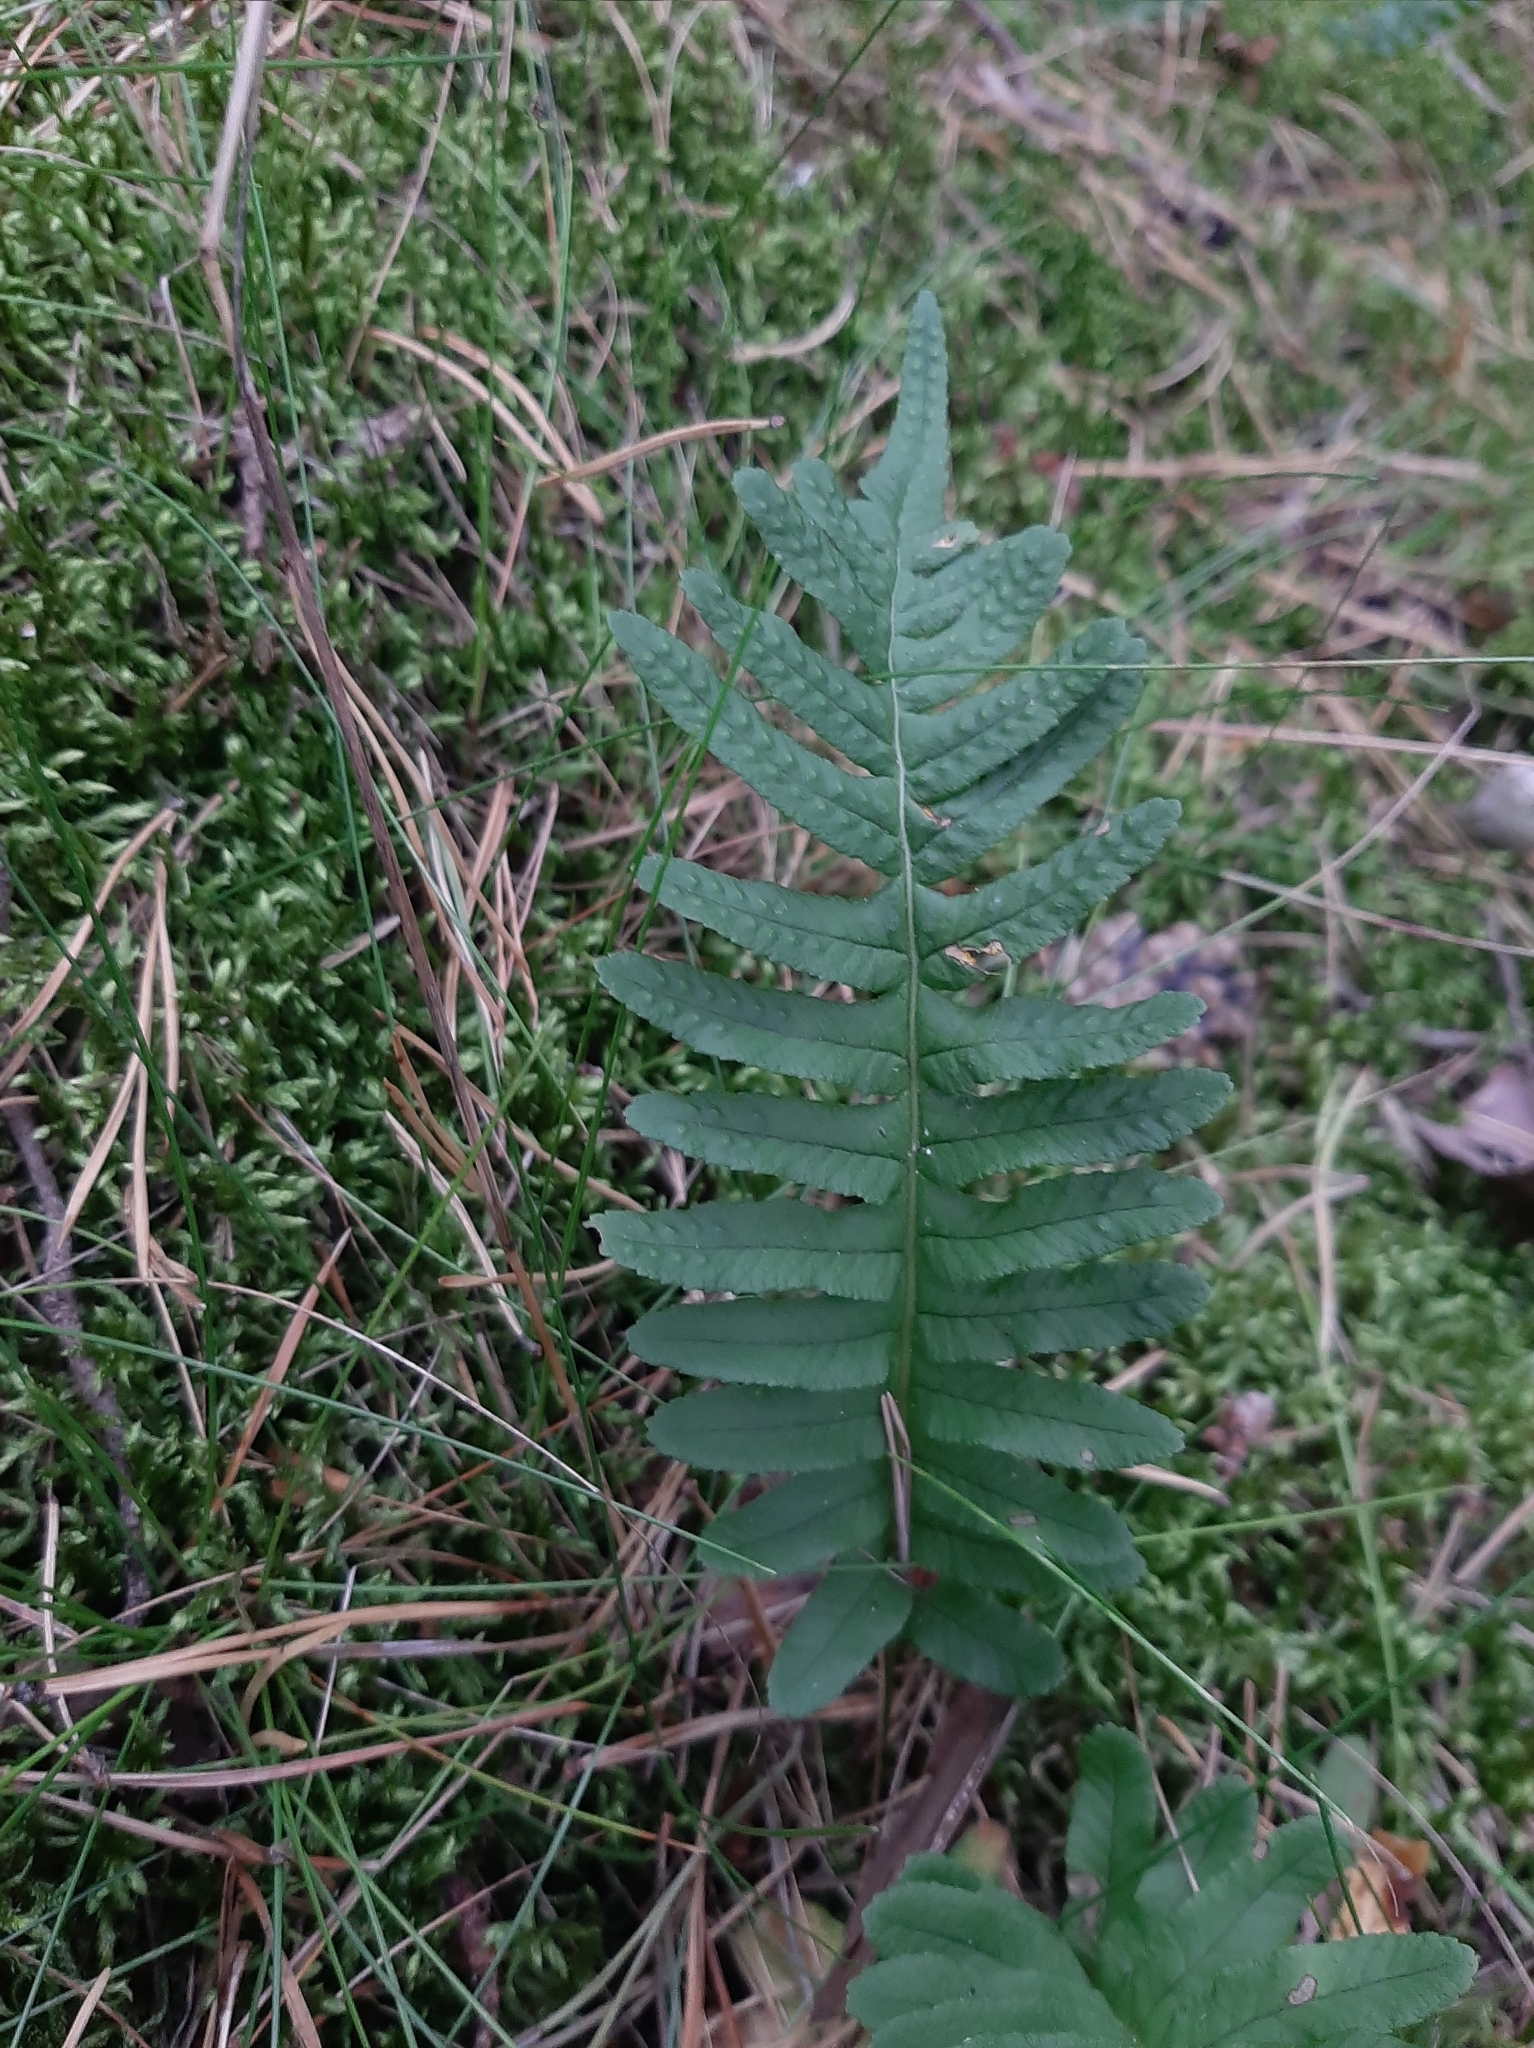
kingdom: Plantae
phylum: Tracheophyta
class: Polypodiopsida
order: Polypodiales
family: Polypodiaceae
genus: Polypodium
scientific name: Polypodium vulgare
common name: Common polypody
